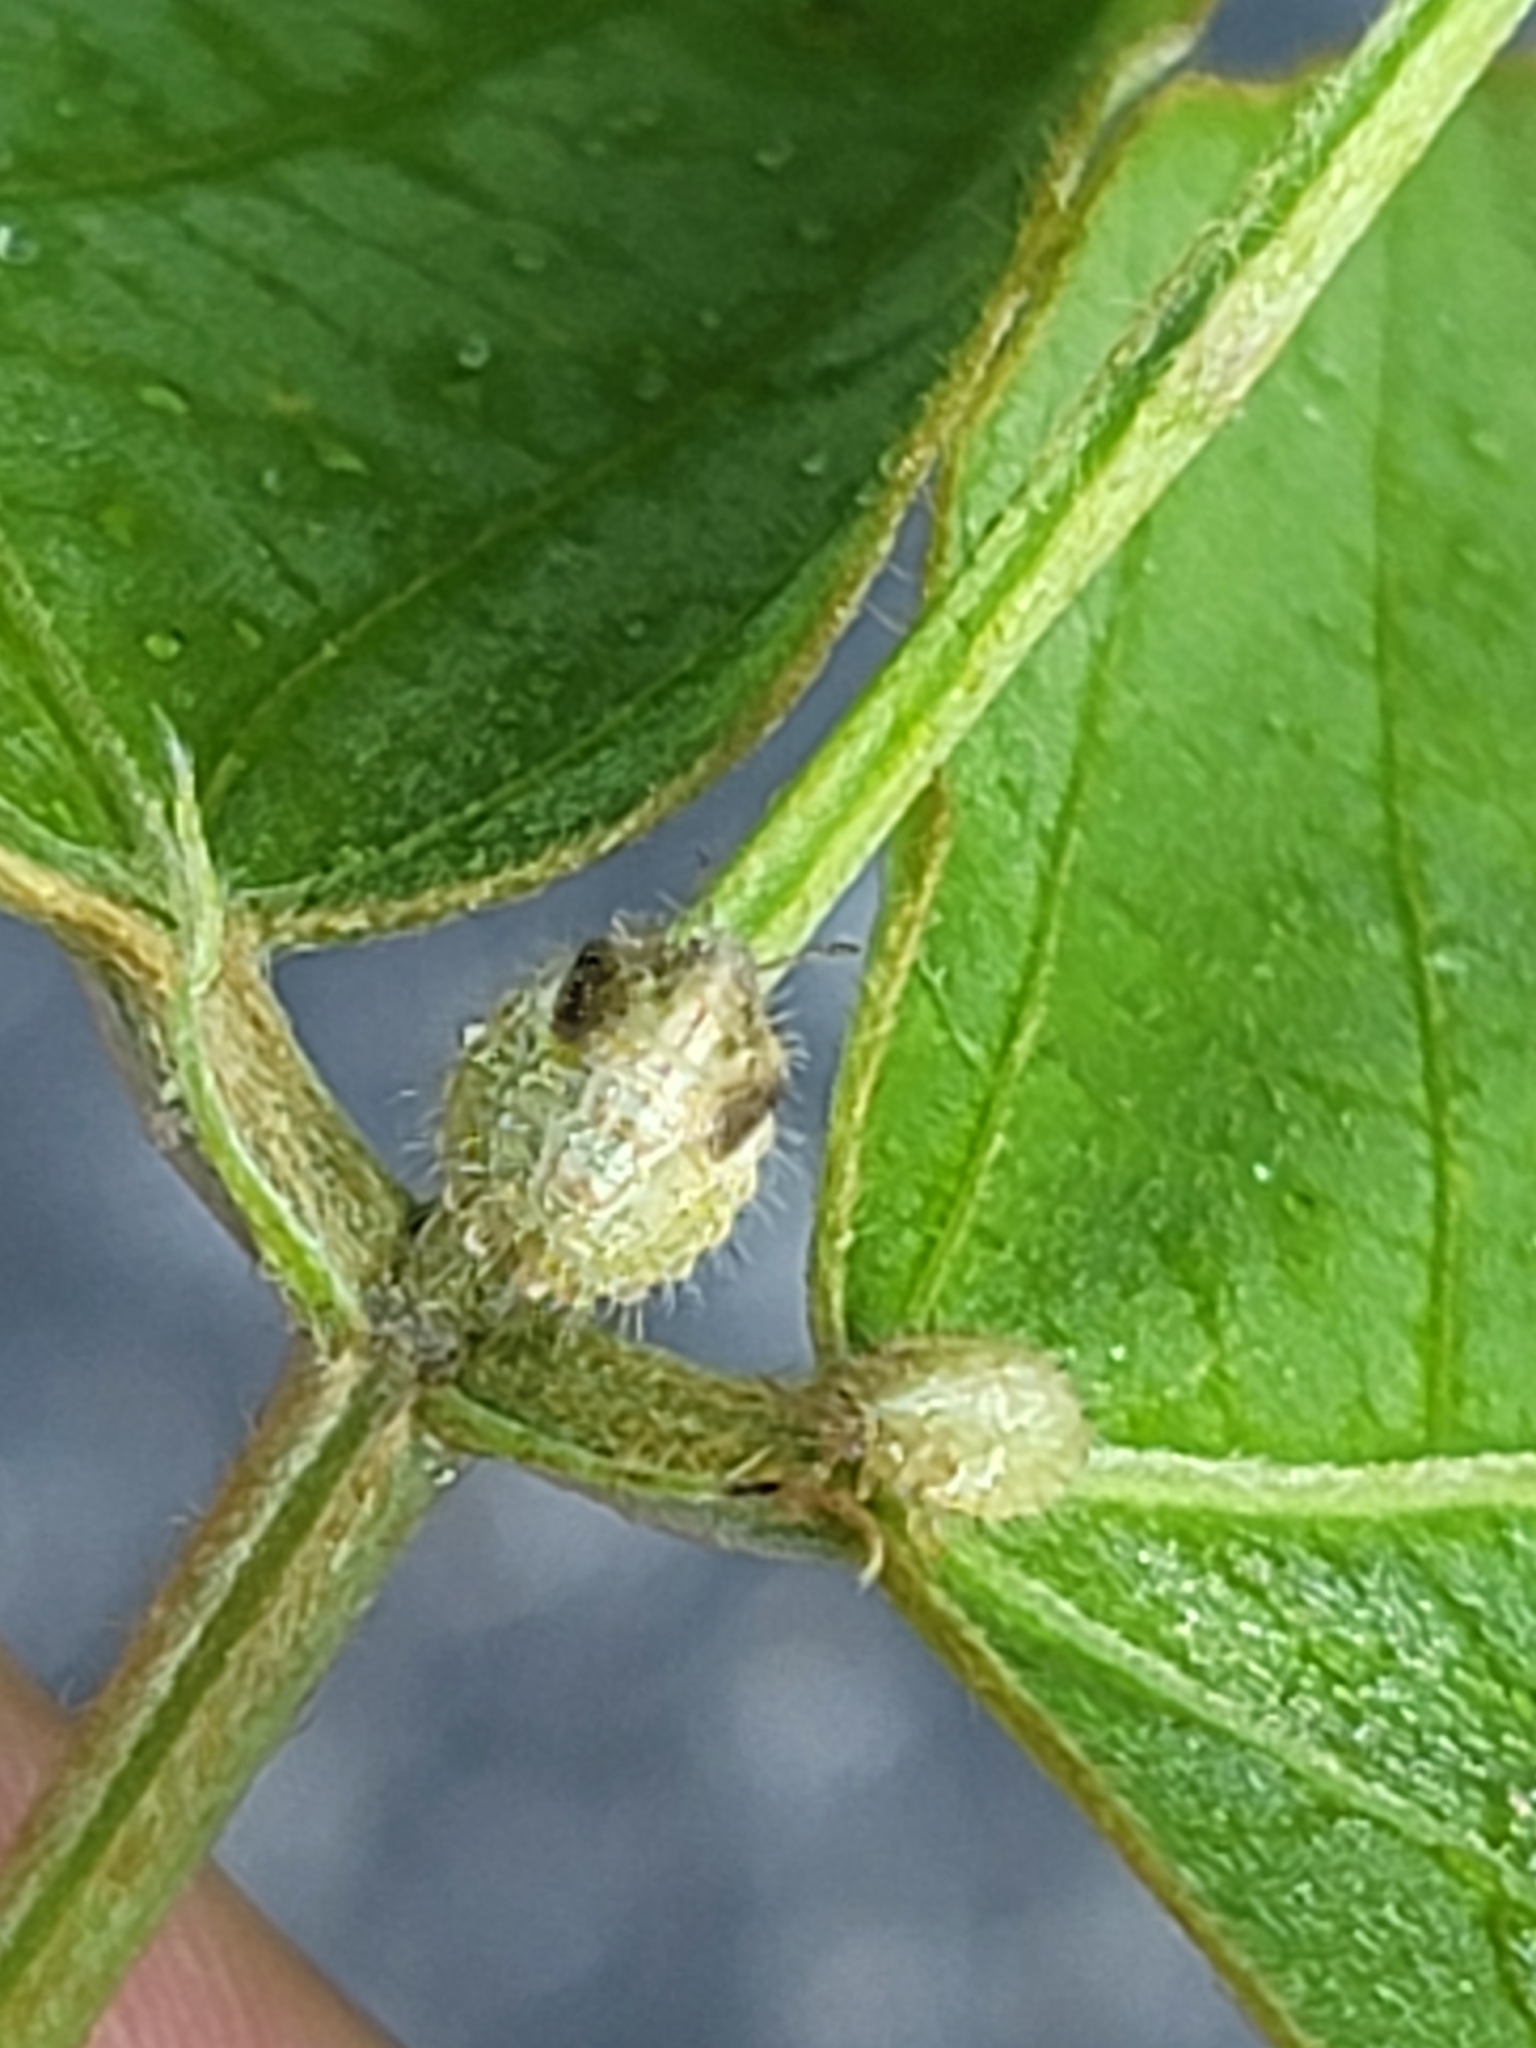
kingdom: Animalia
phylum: Arthropoda
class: Insecta
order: Hemiptera
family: Plataspidae
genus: Megacopta
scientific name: Megacopta cribraria
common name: Bean plataspid
